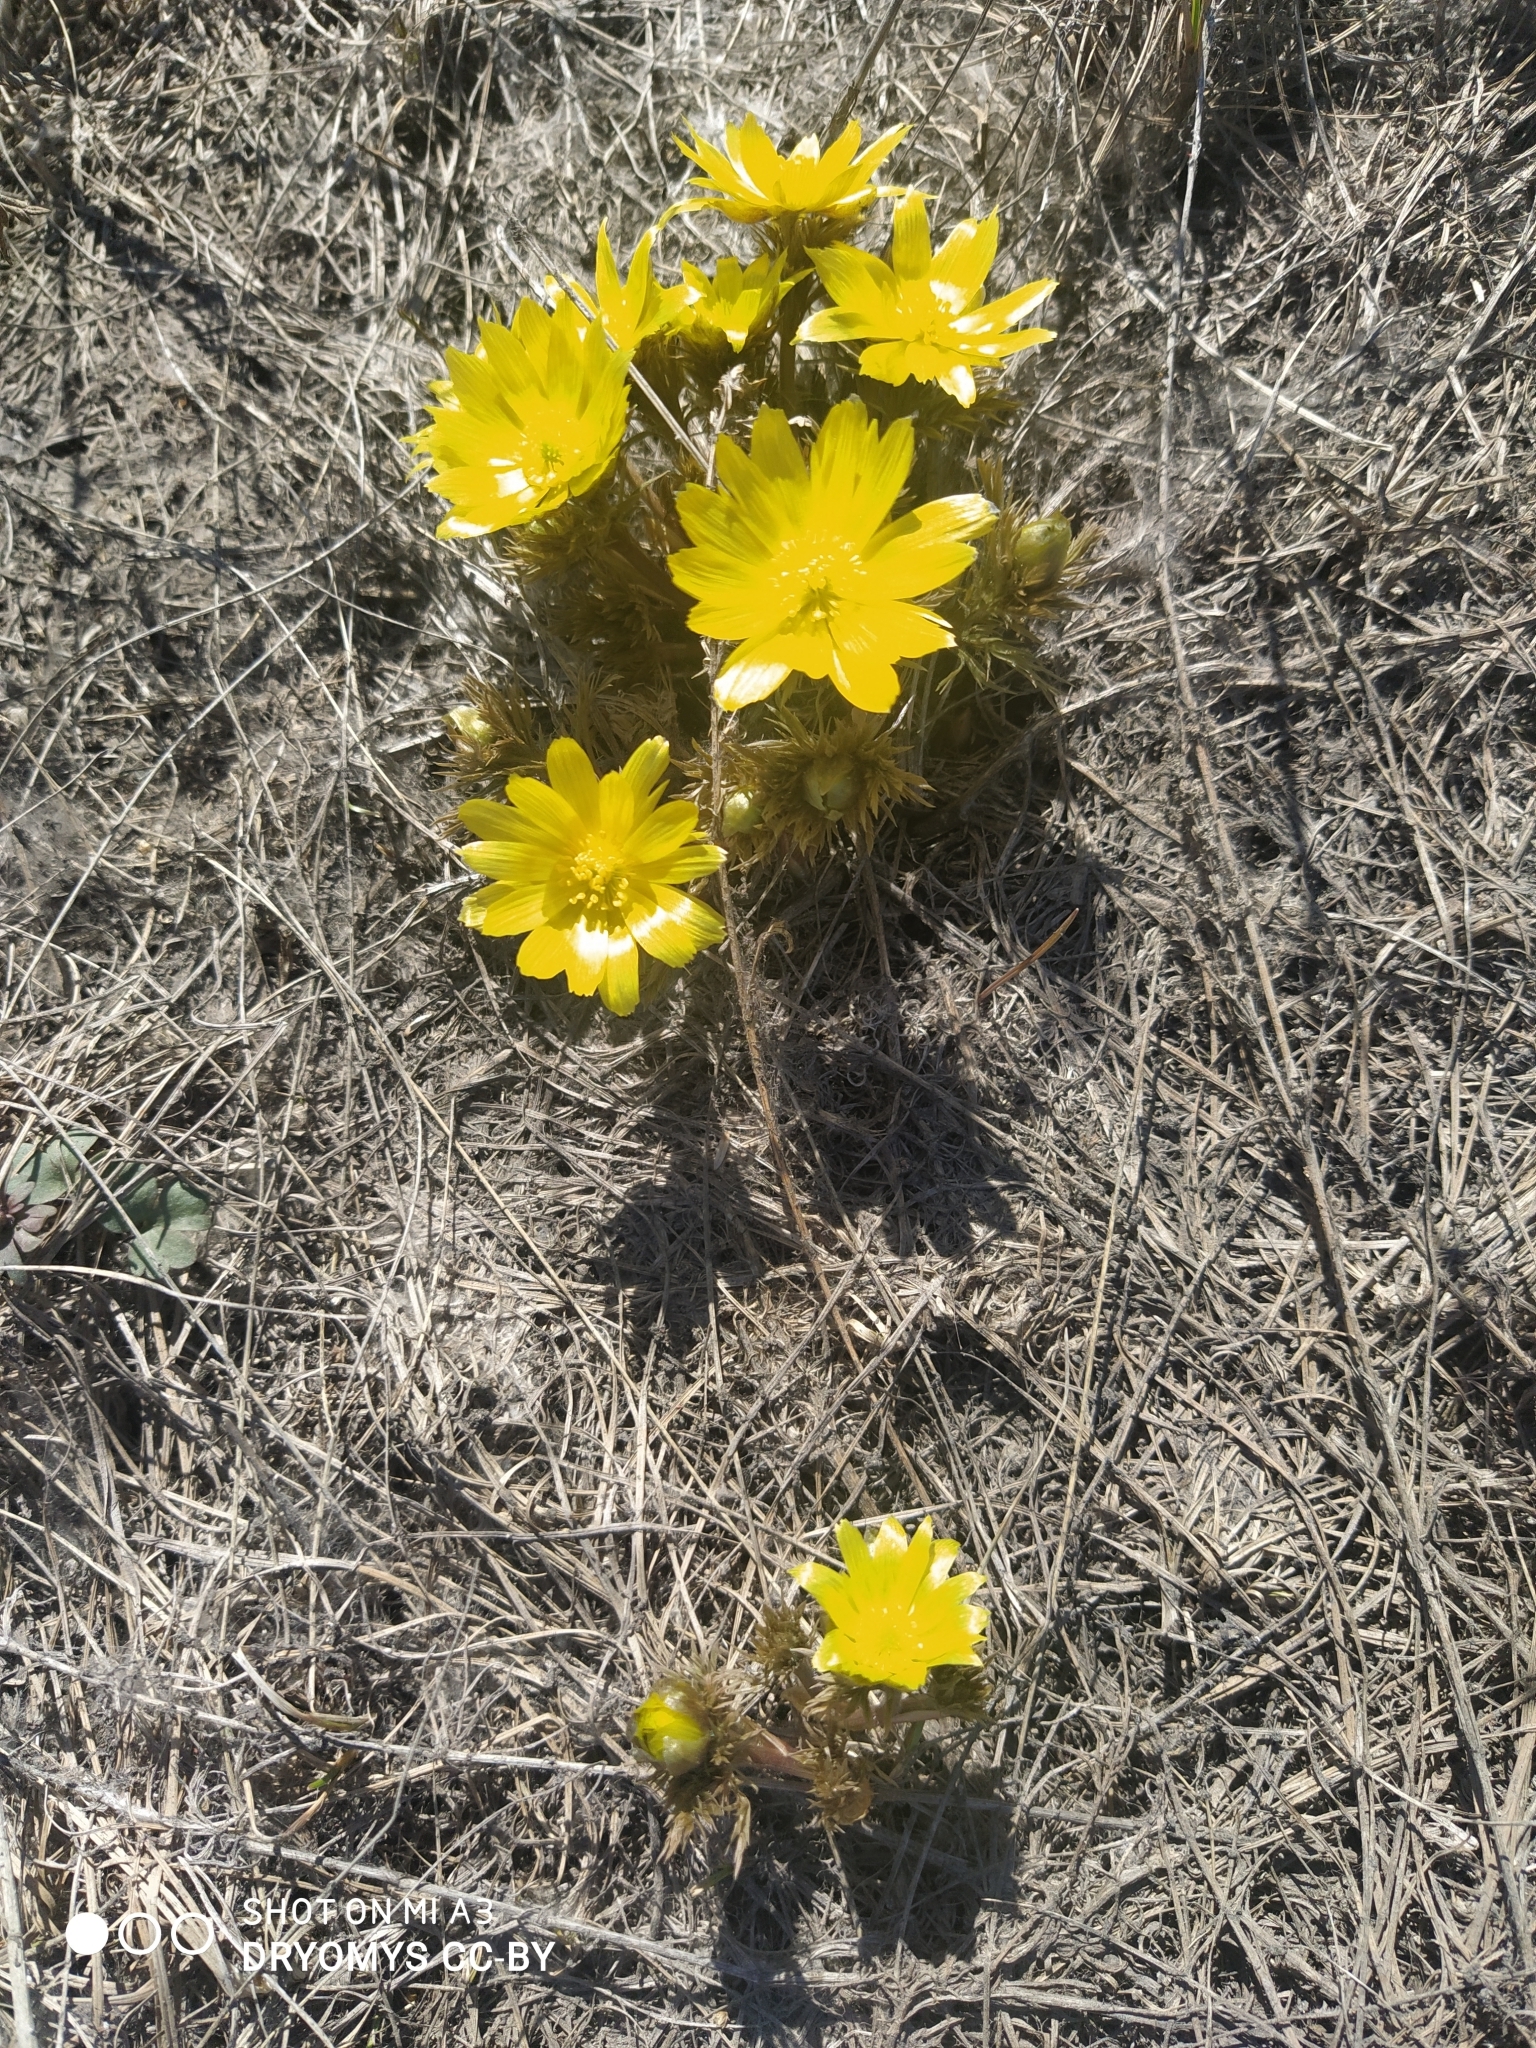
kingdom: Plantae
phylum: Tracheophyta
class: Magnoliopsida
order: Ranunculales
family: Ranunculaceae
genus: Adonis
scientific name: Adonis volgensis
